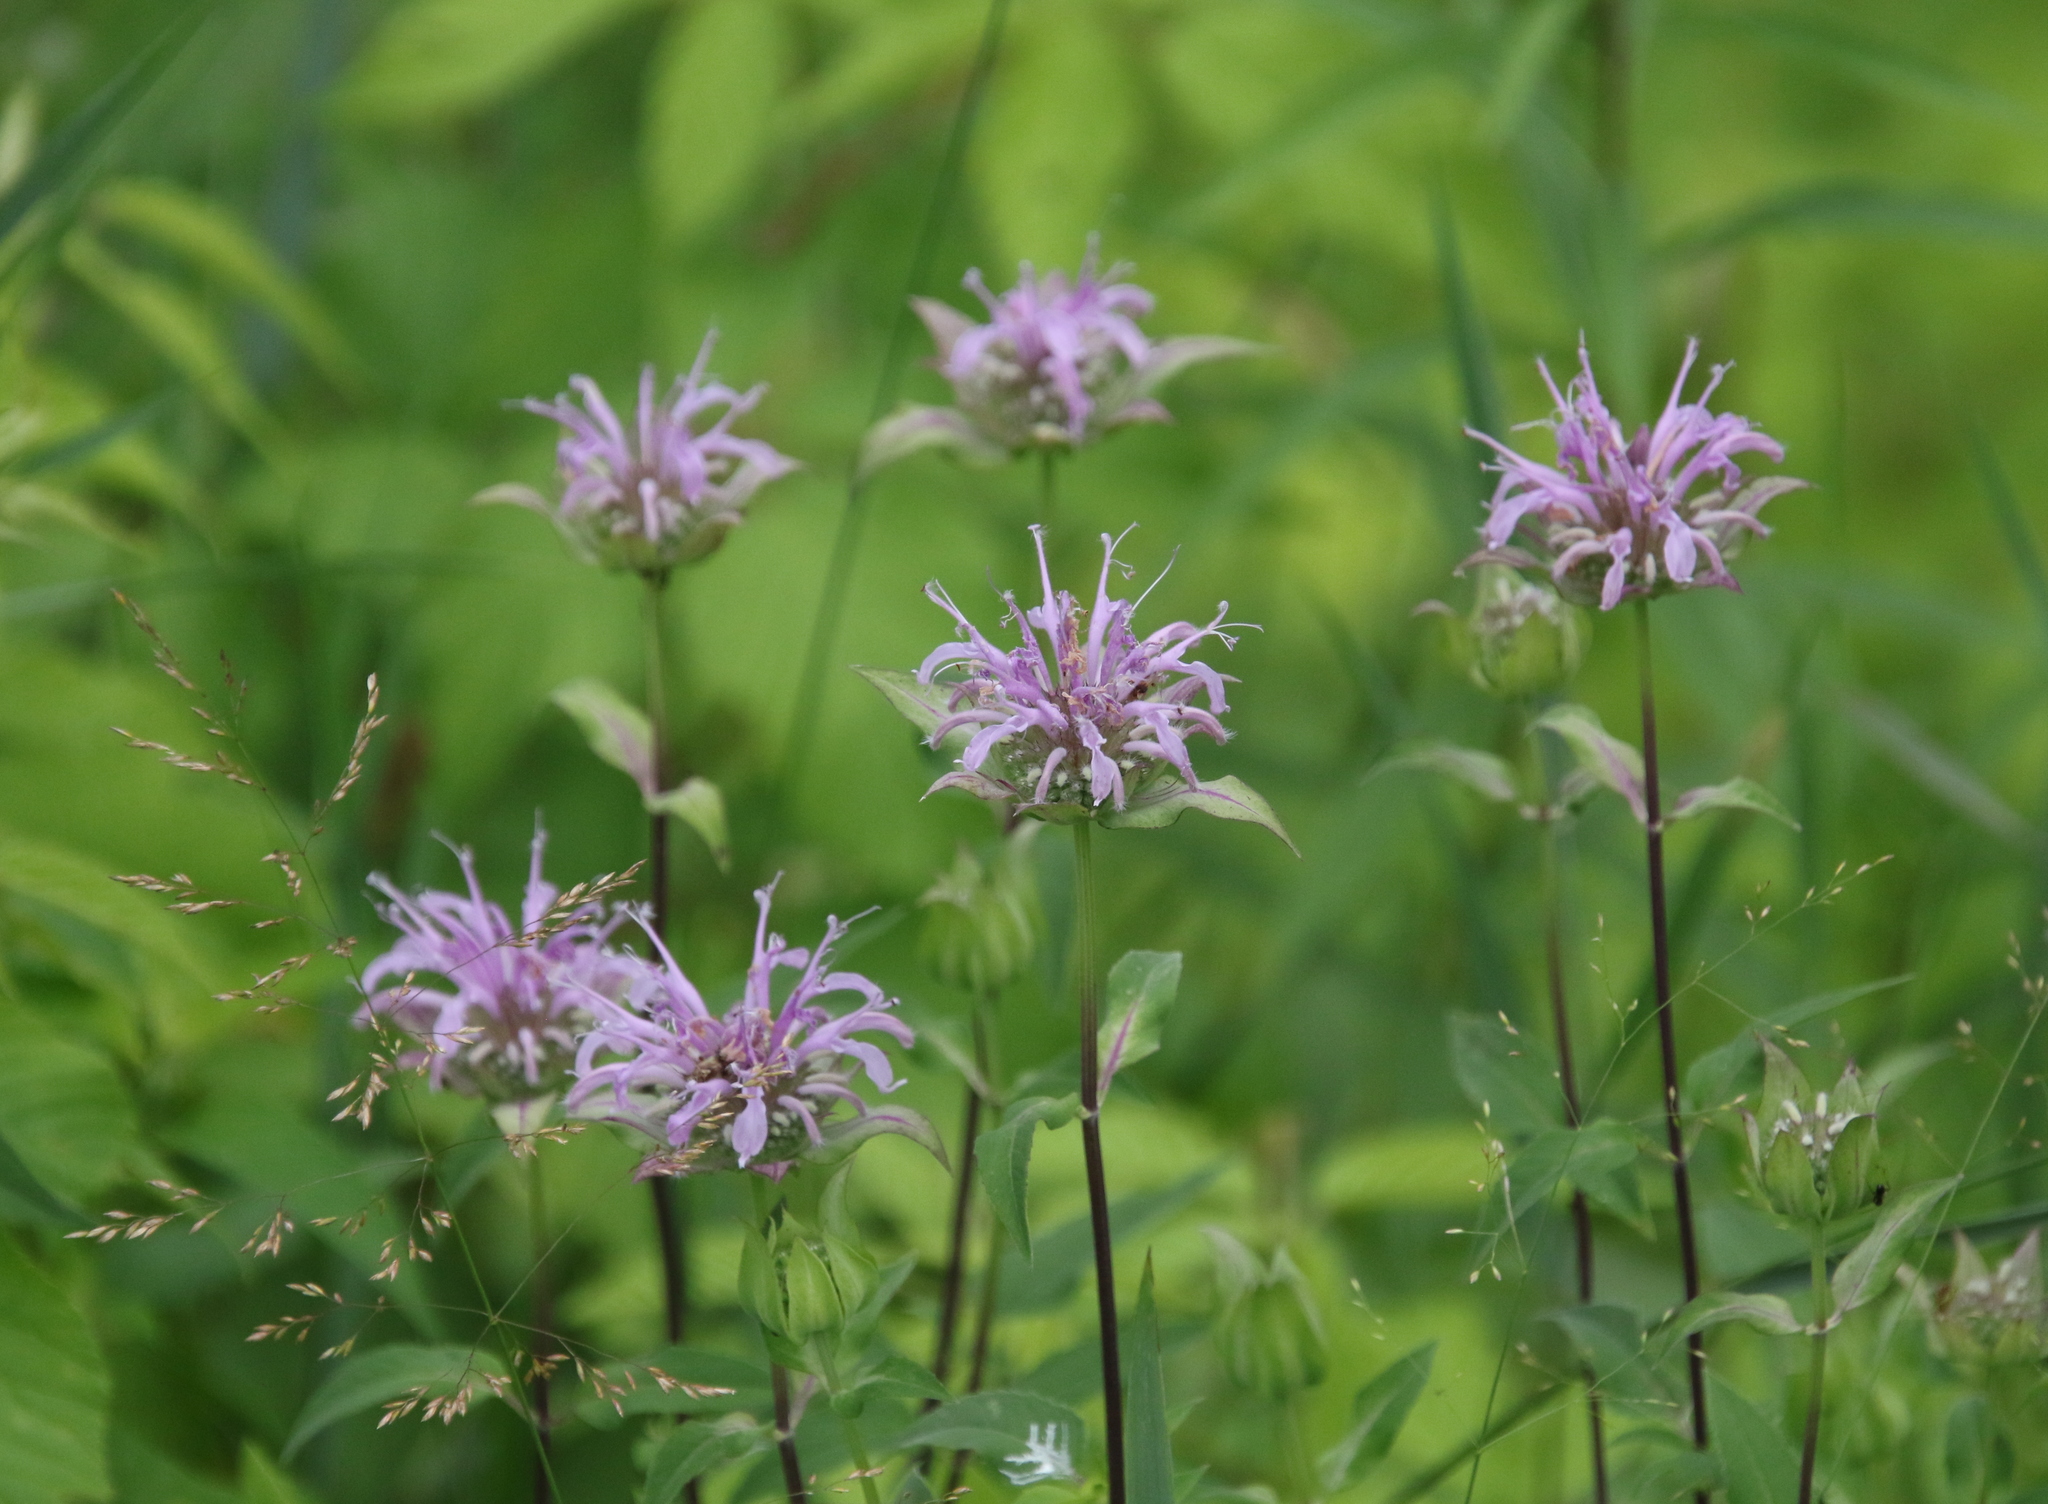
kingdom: Plantae
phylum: Tracheophyta
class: Magnoliopsida
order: Lamiales
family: Lamiaceae
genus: Monarda
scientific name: Monarda fistulosa
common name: Purple beebalm
